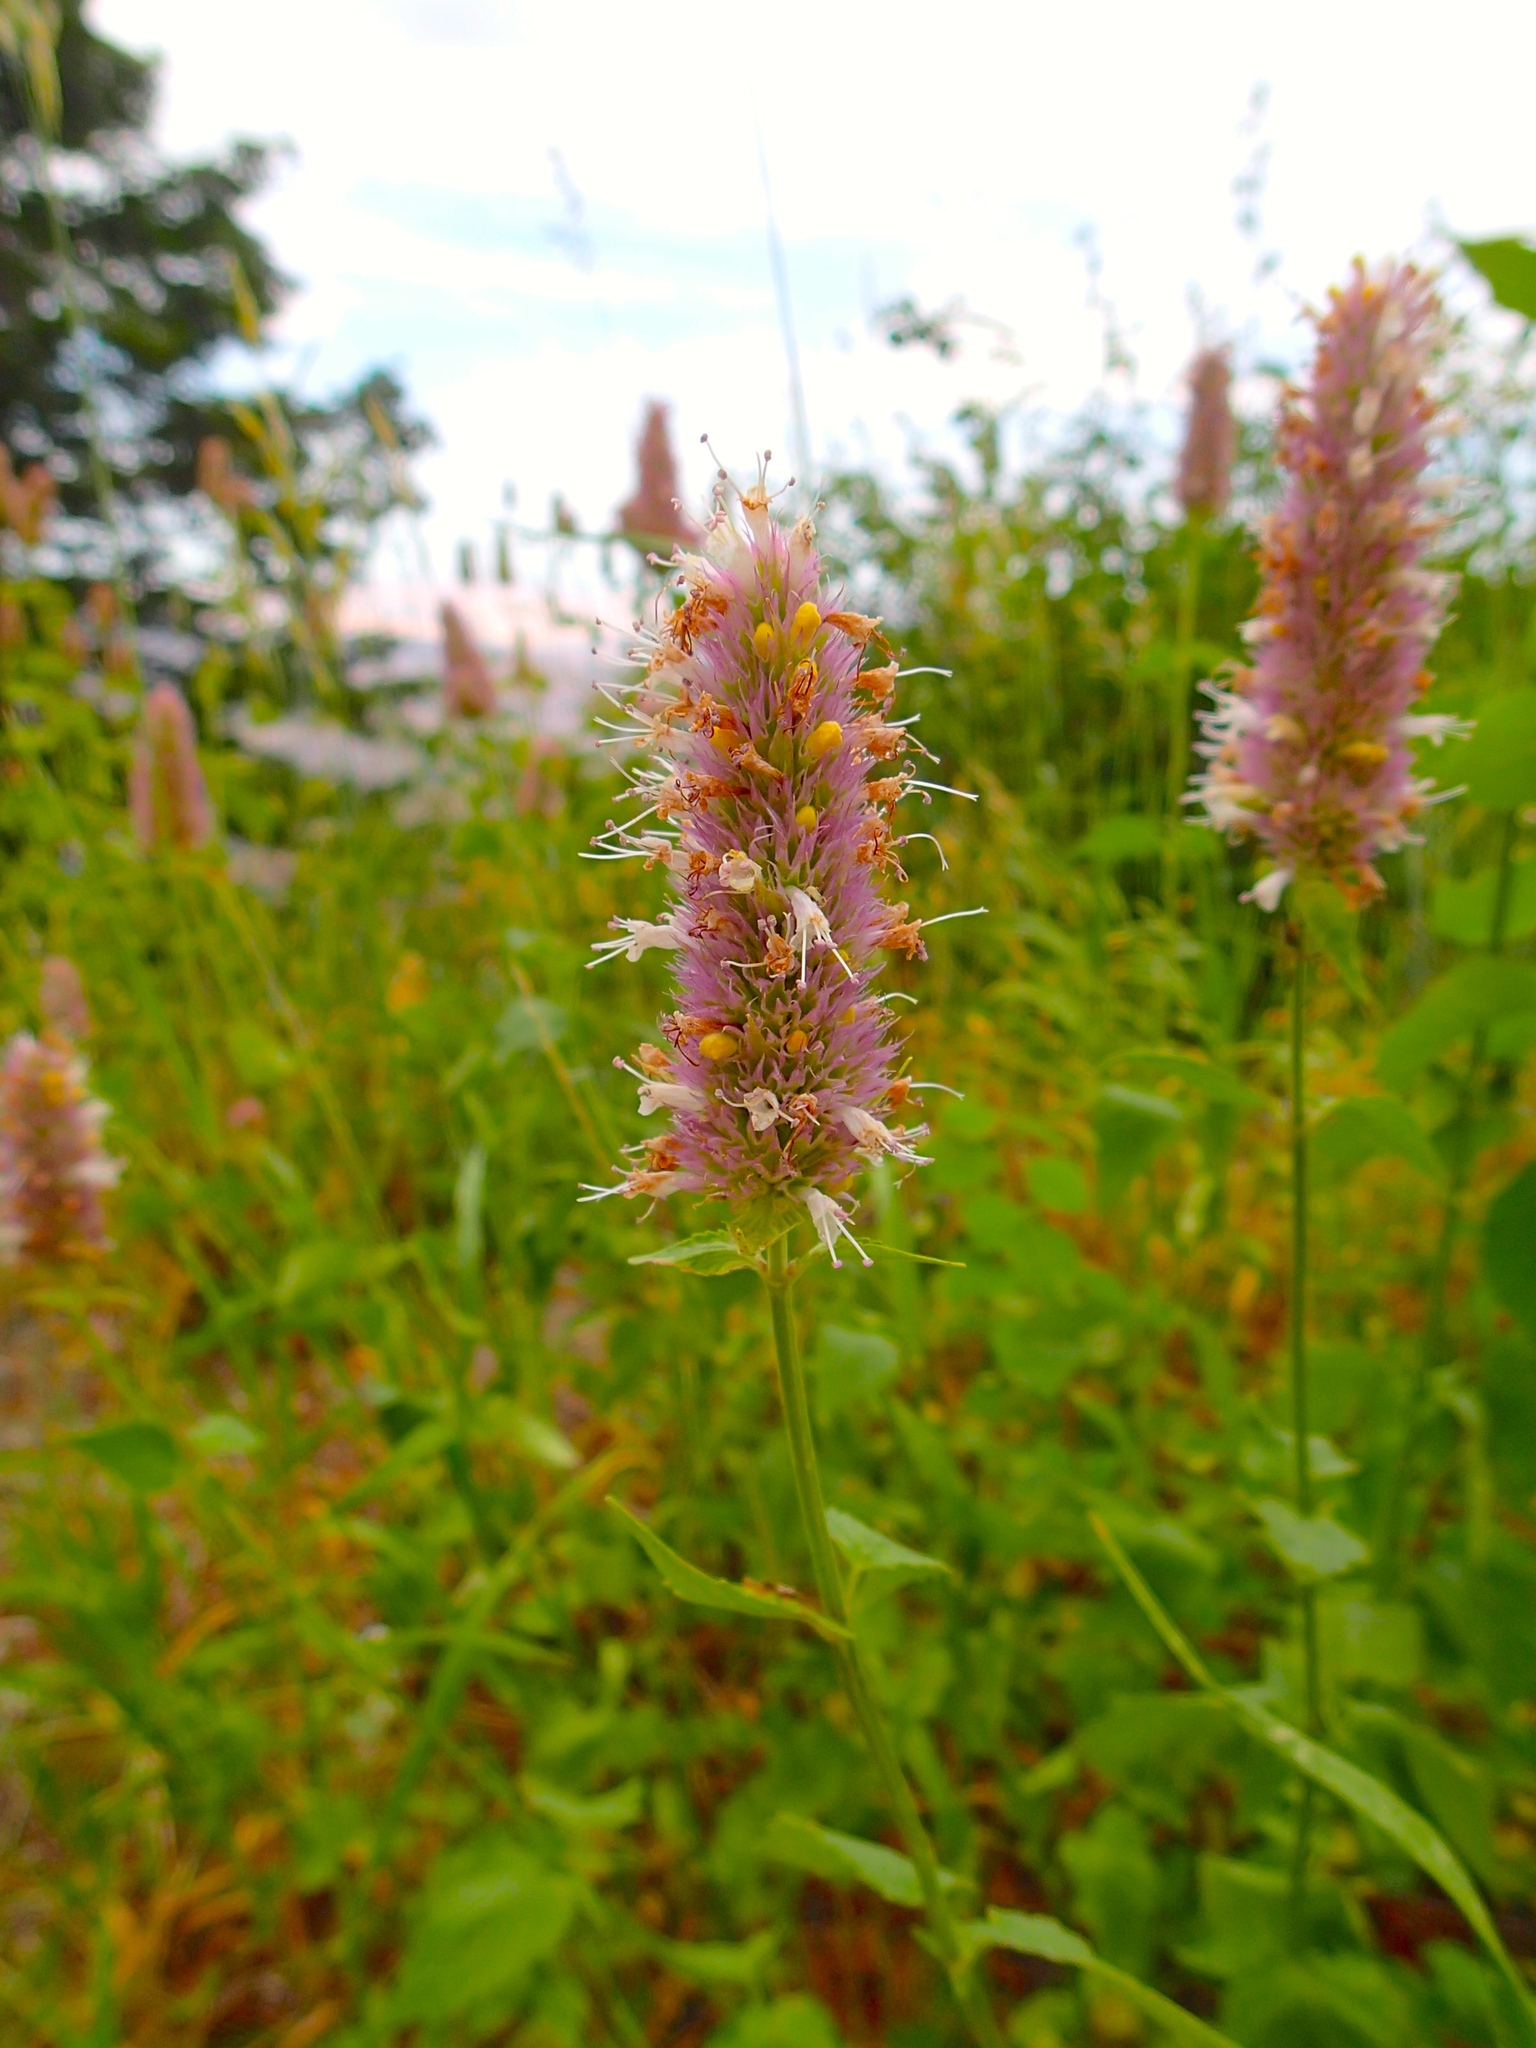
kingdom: Plantae
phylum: Tracheophyta
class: Magnoliopsida
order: Lamiales
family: Lamiaceae
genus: Agastache
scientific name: Agastache urticifolia
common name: Horsemint giant hyssop
